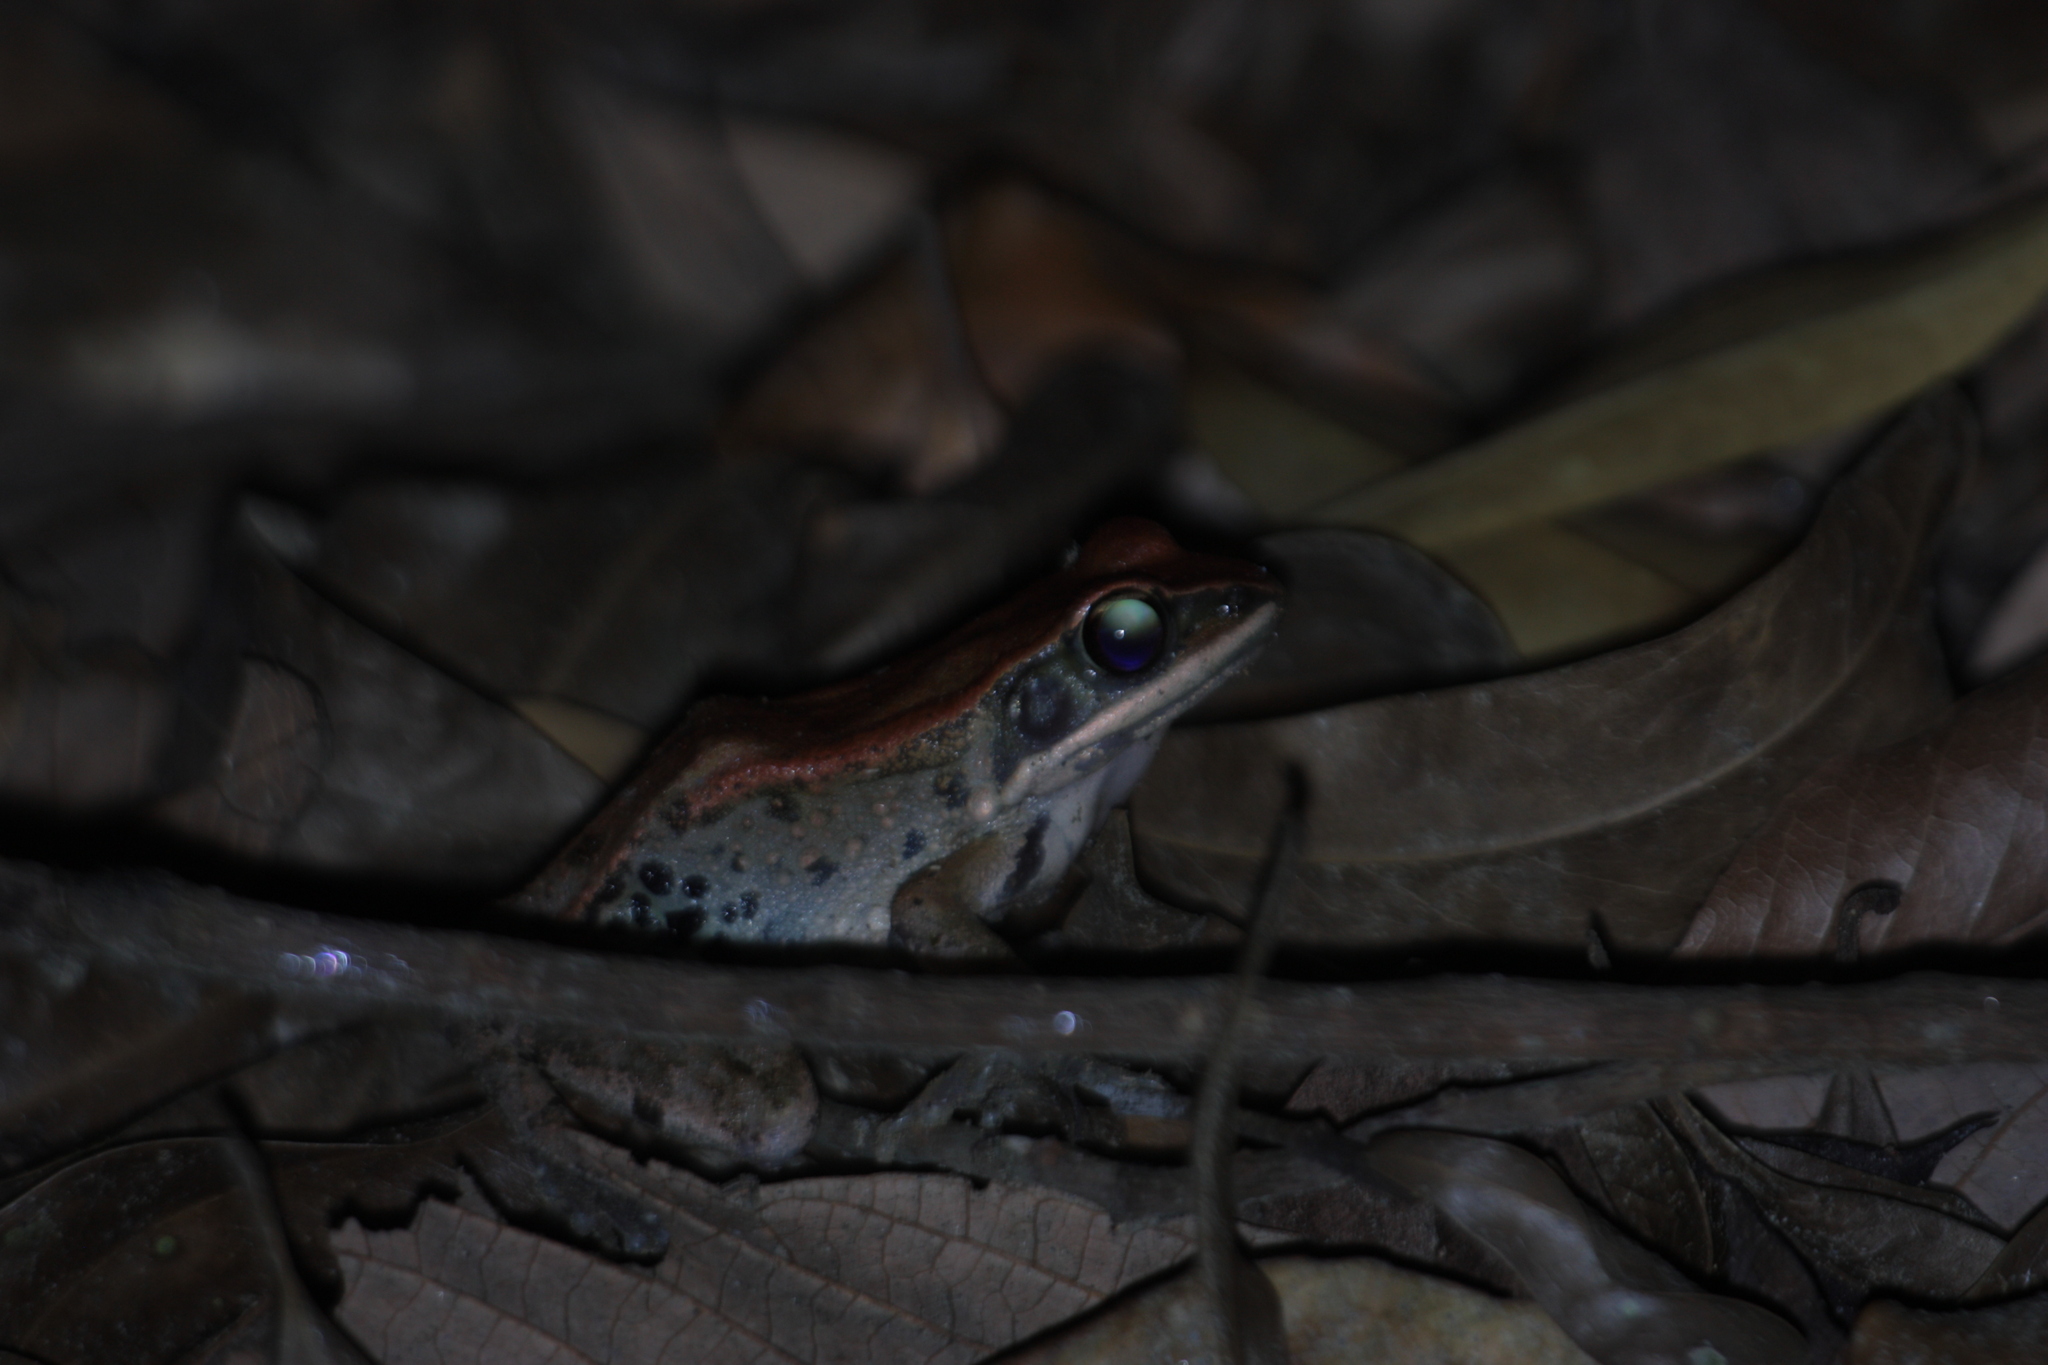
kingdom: Animalia
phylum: Chordata
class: Amphibia
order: Anura
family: Ranidae
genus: Hylarana
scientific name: Hylarana latouchii
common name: Broad-folded frog
